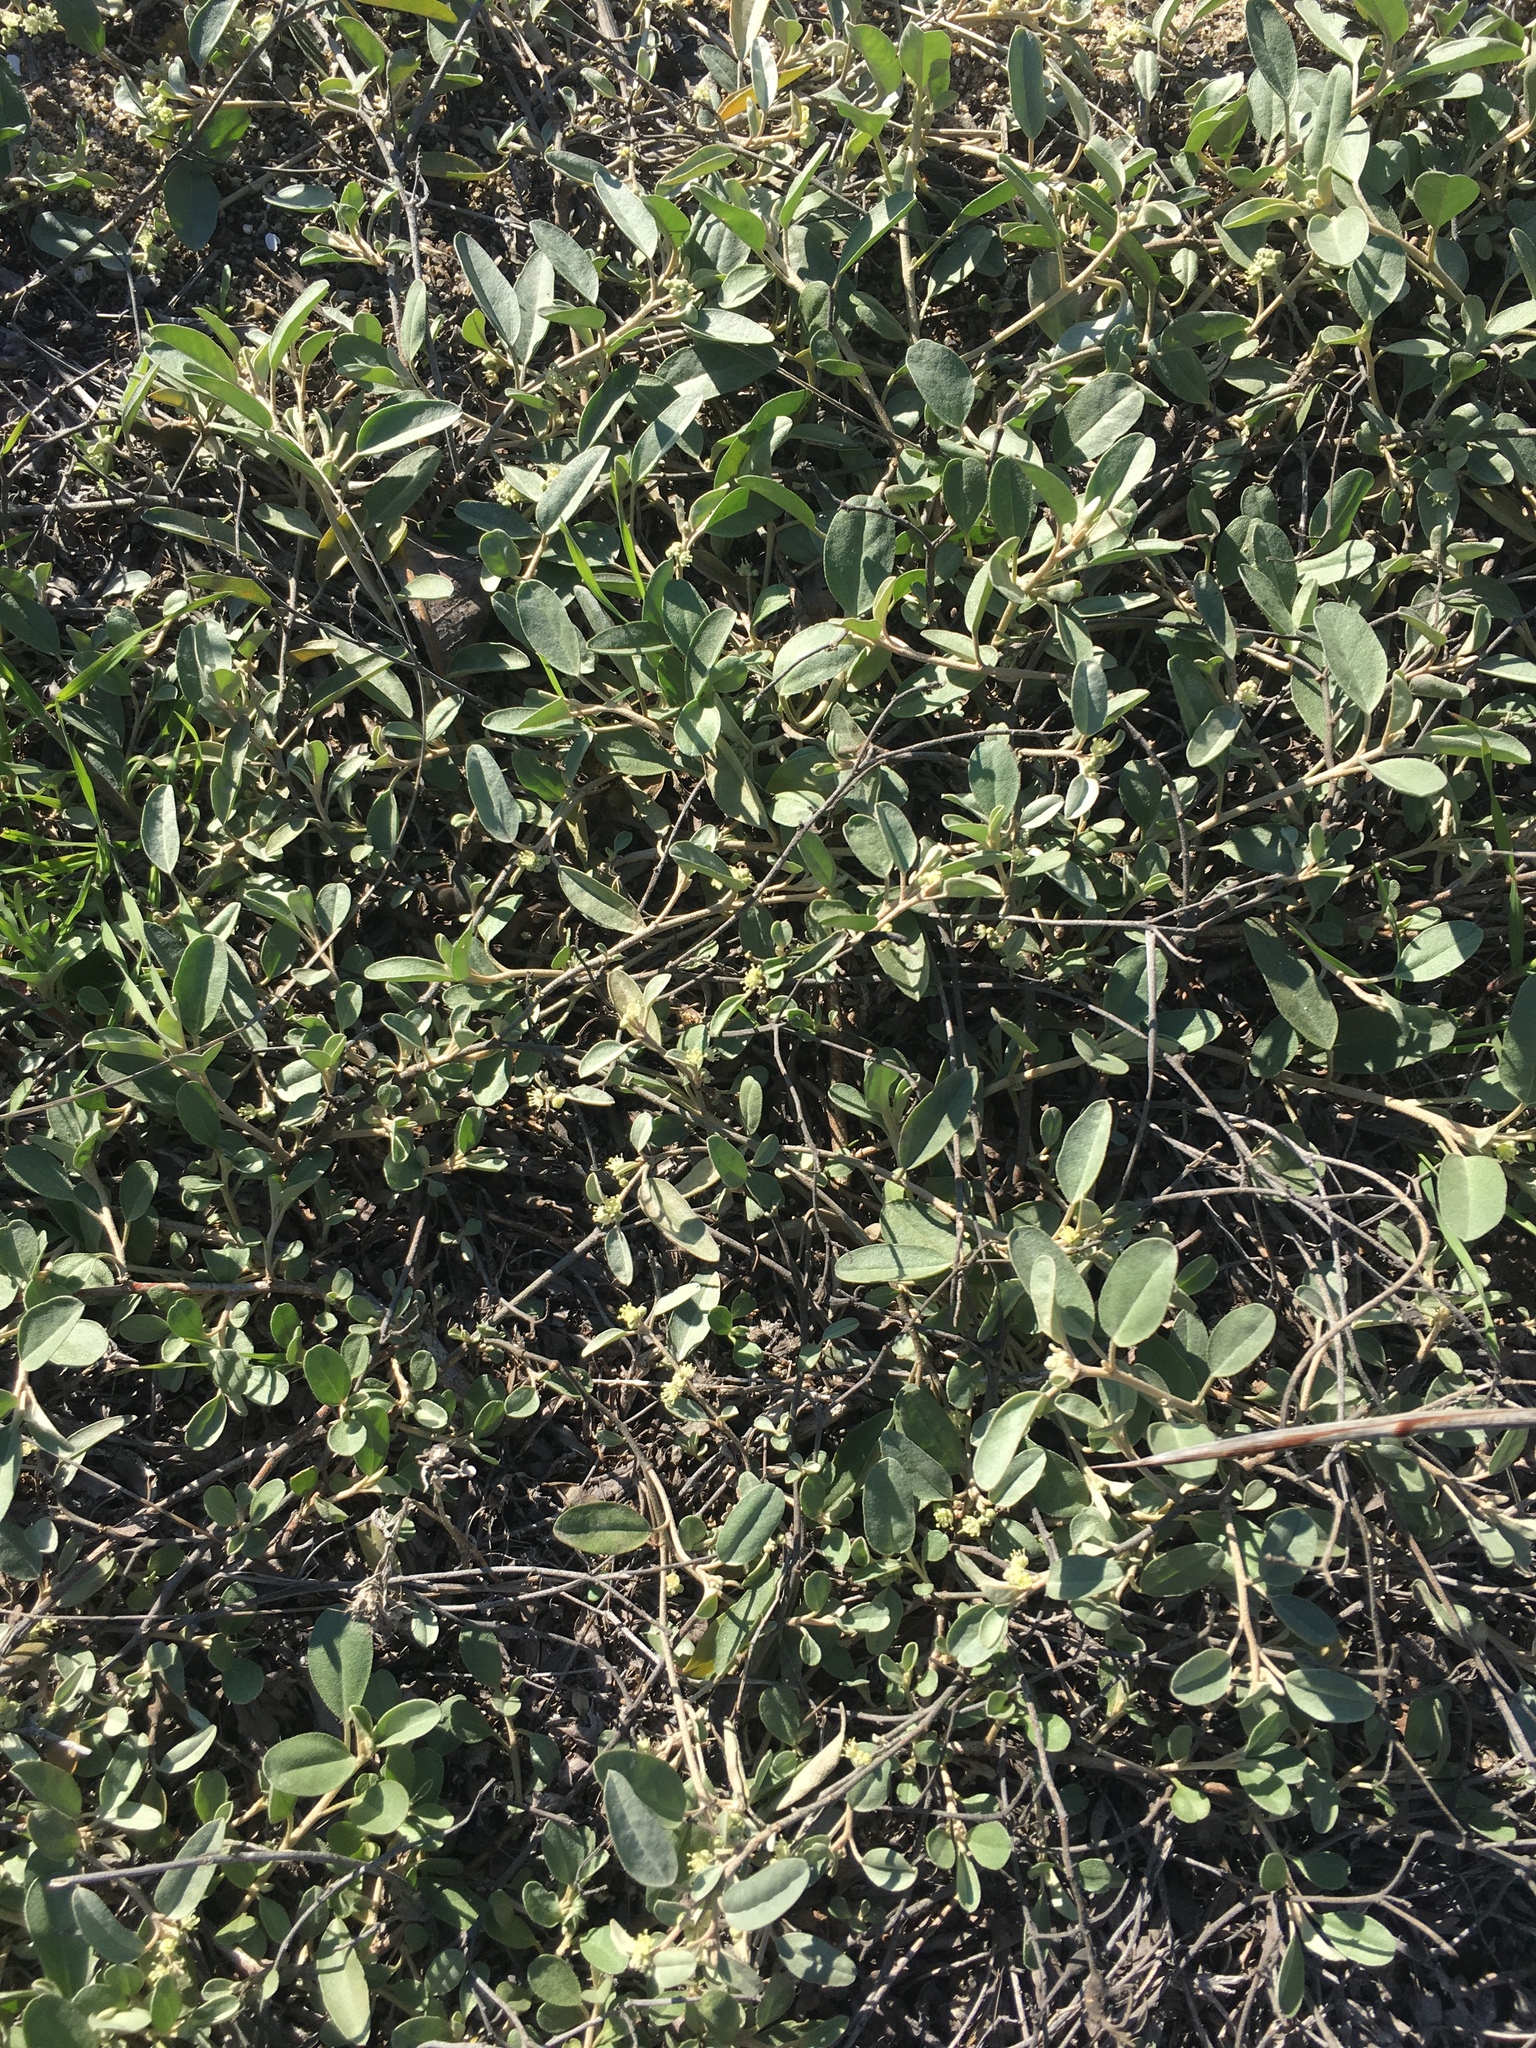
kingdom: Plantae
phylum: Tracheophyta
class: Magnoliopsida
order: Malpighiales
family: Euphorbiaceae
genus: Croton
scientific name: Croton californicus
